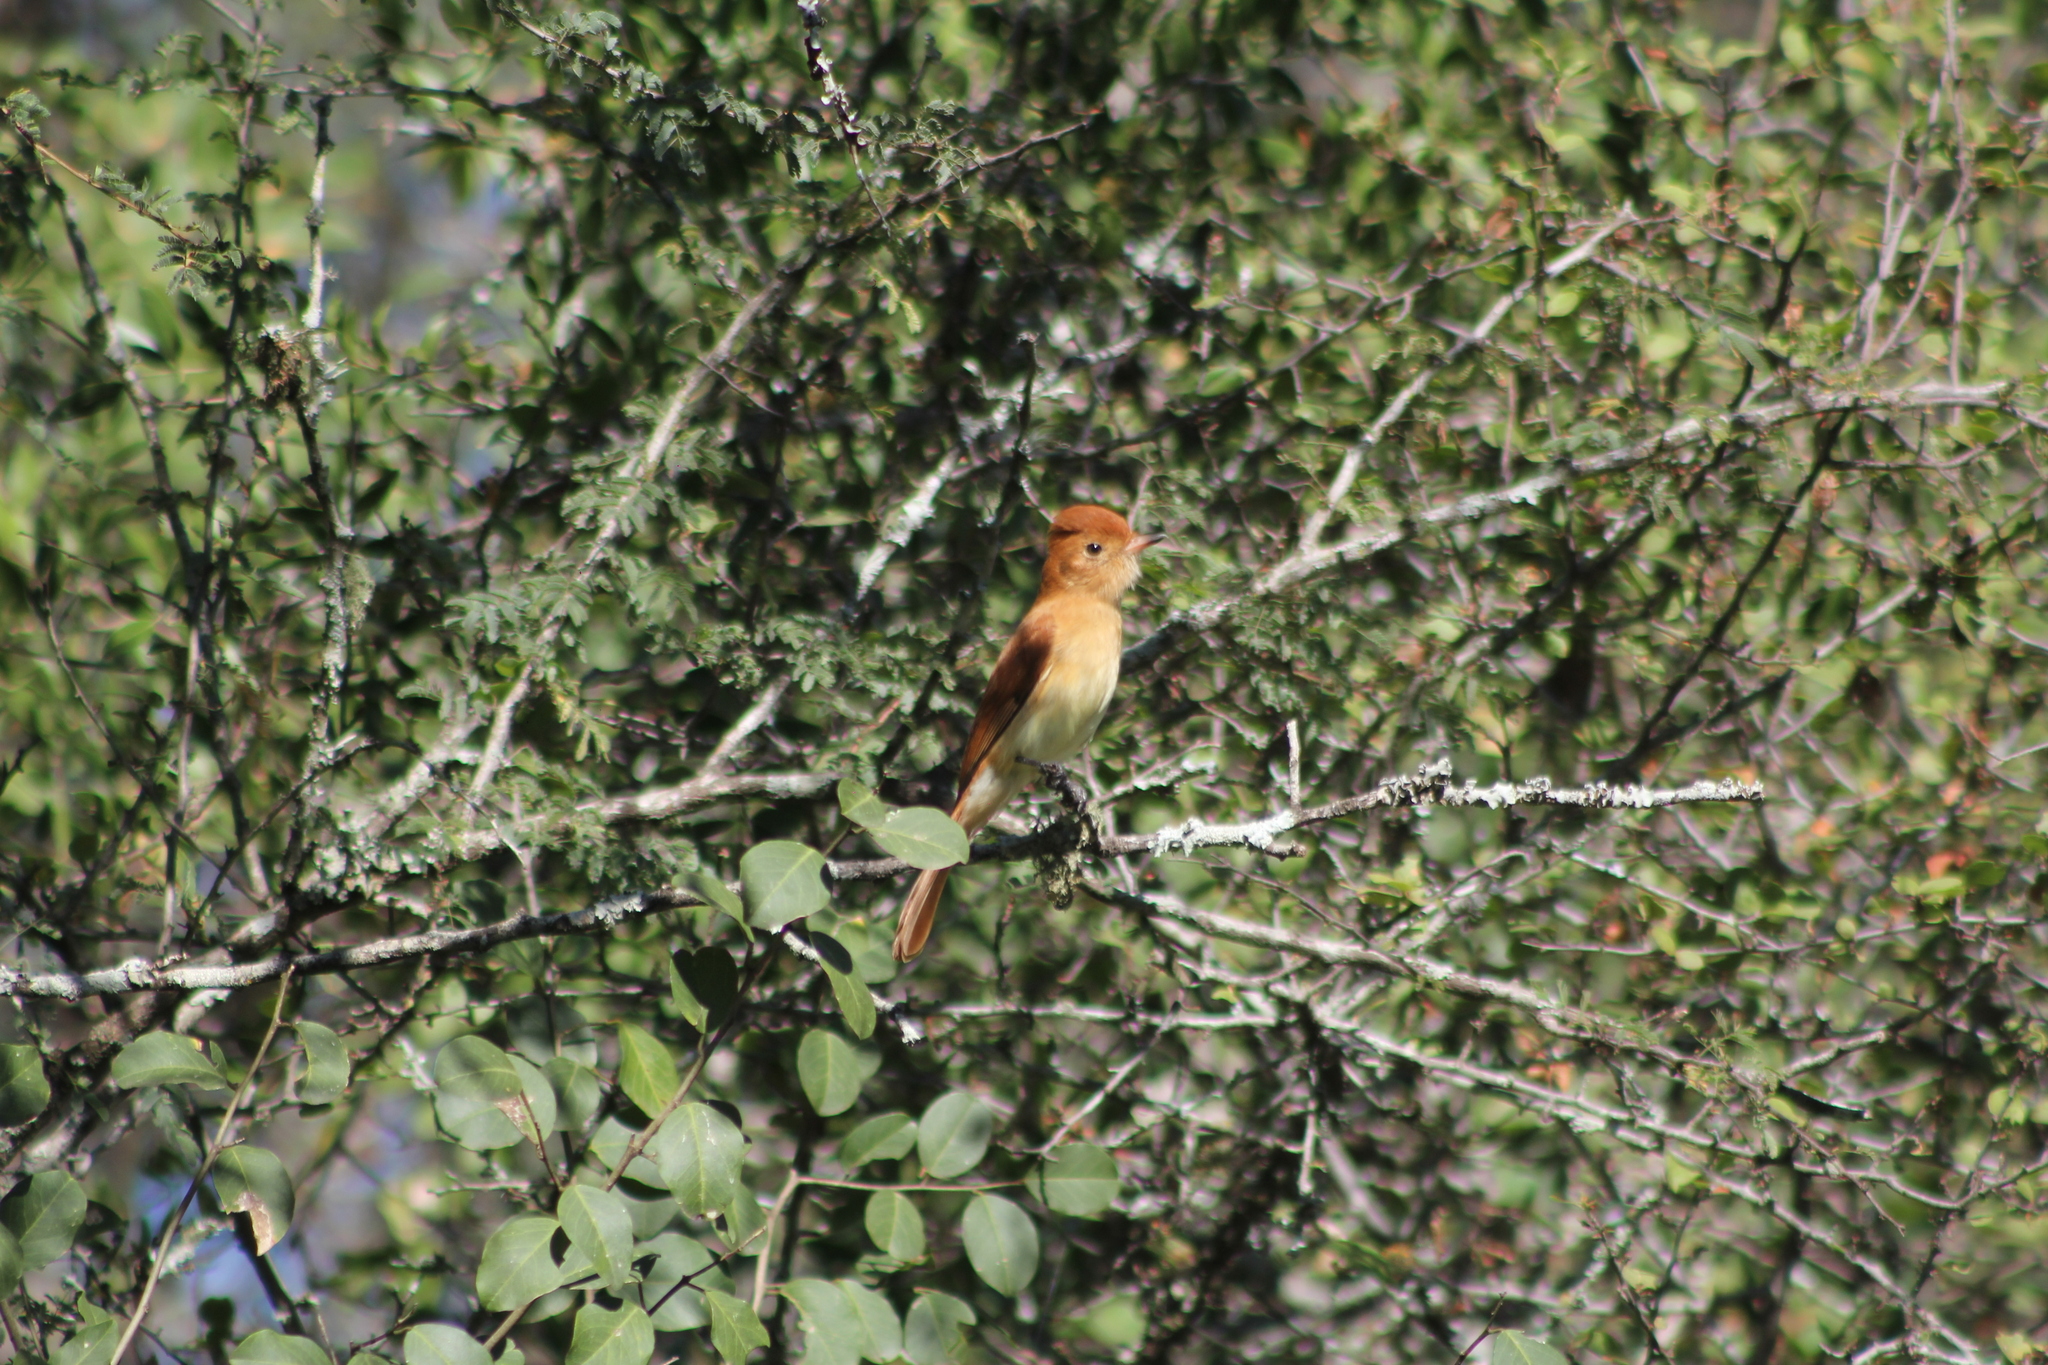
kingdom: Animalia
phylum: Chordata
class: Aves
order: Passeriformes
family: Tyrannidae
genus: Casiornis
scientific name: Casiornis rufus
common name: Rufous casiornis
